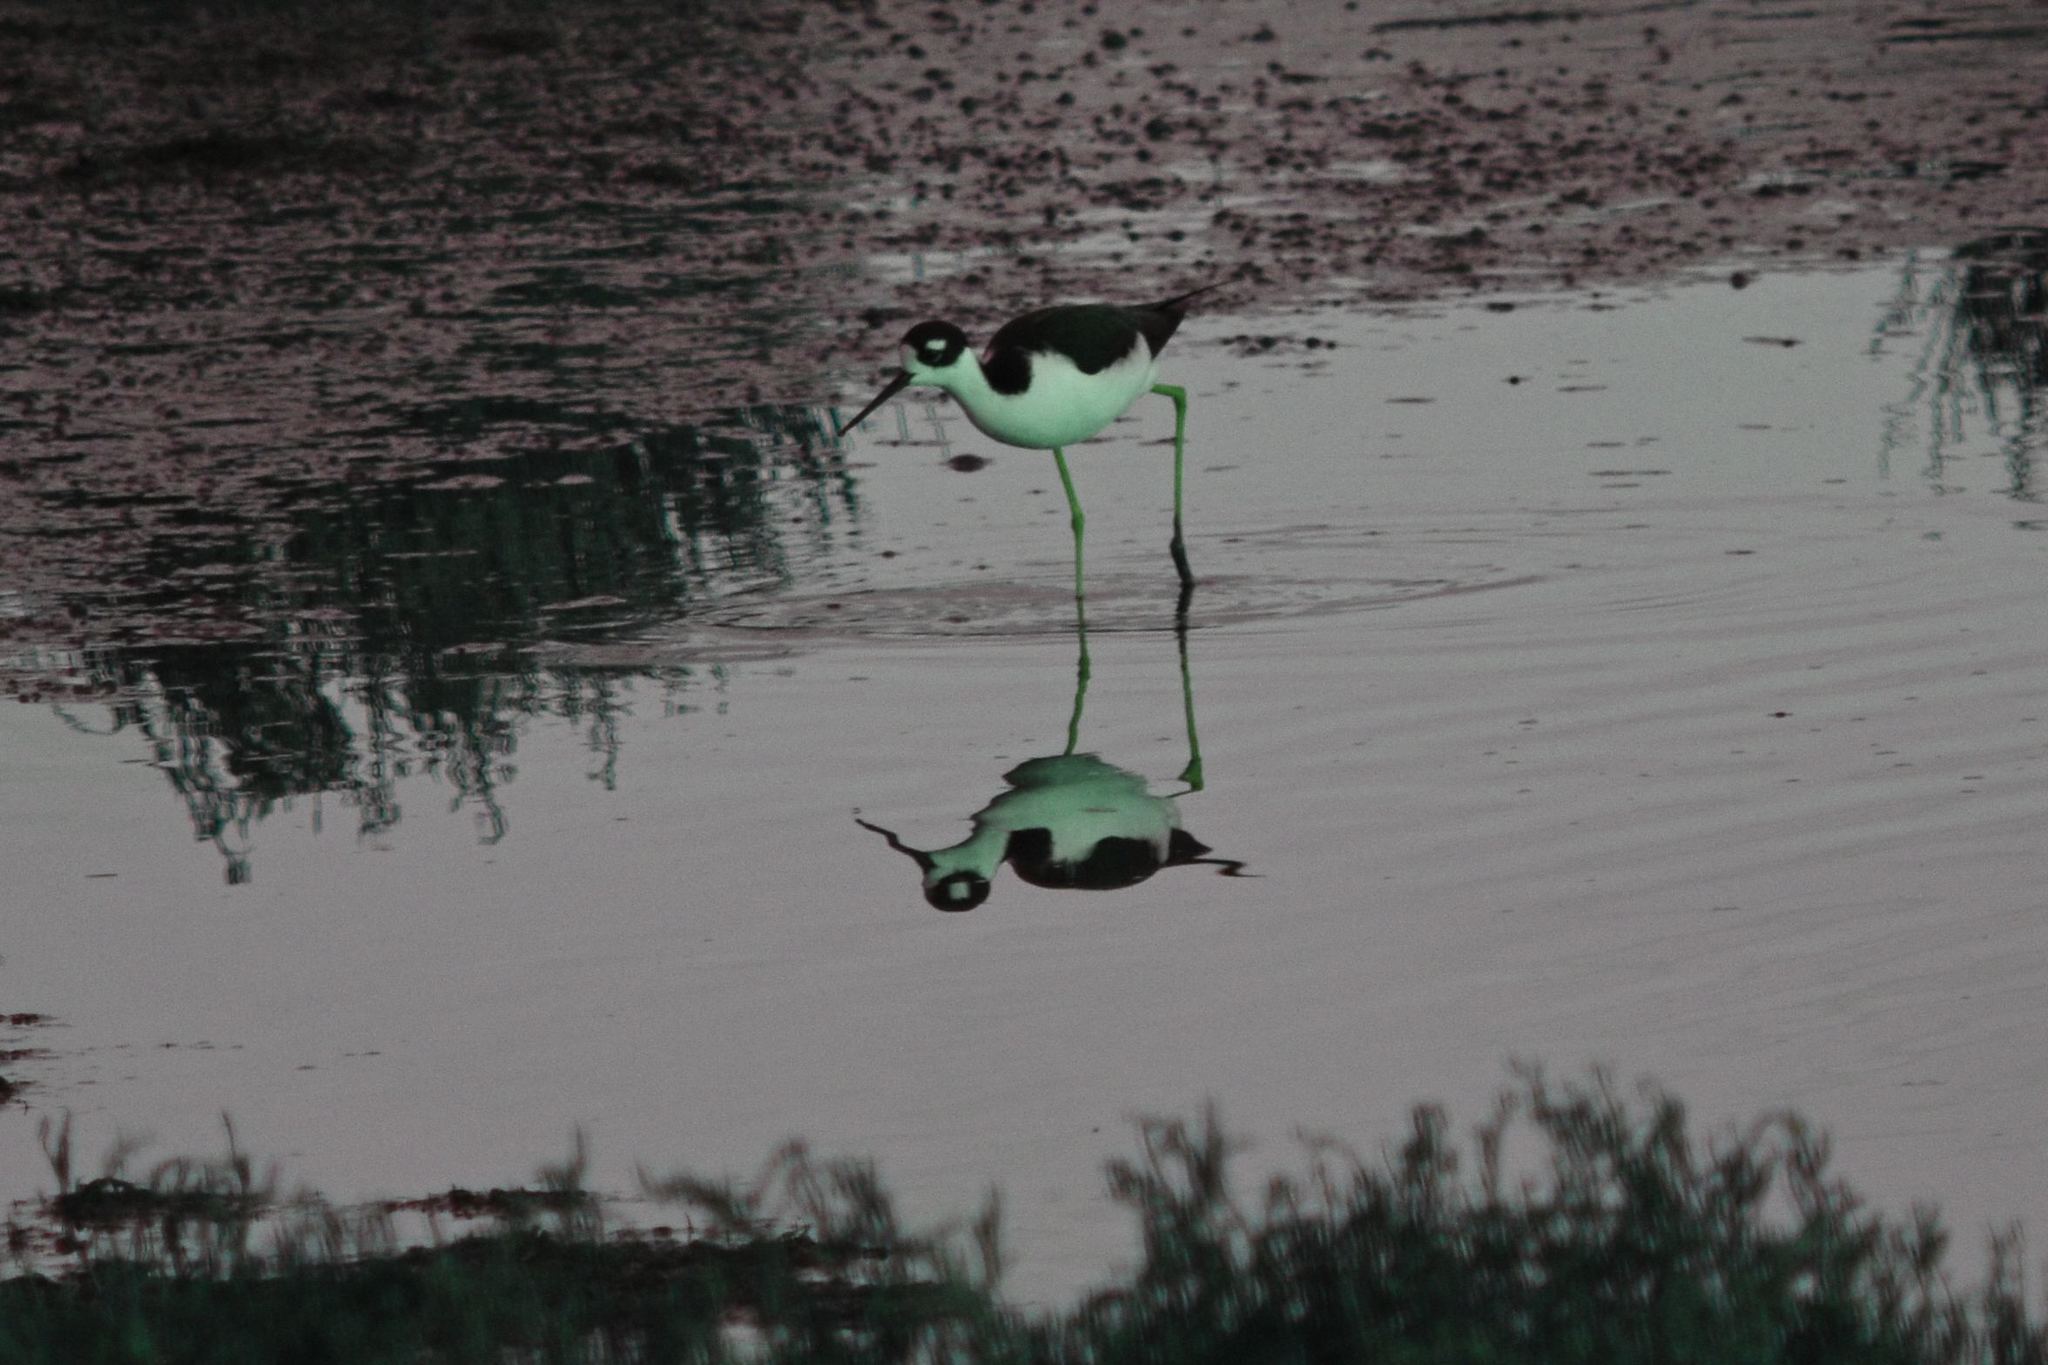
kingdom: Animalia
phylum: Chordata
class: Aves
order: Charadriiformes
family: Recurvirostridae
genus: Himantopus
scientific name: Himantopus mexicanus
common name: Black-necked stilt
